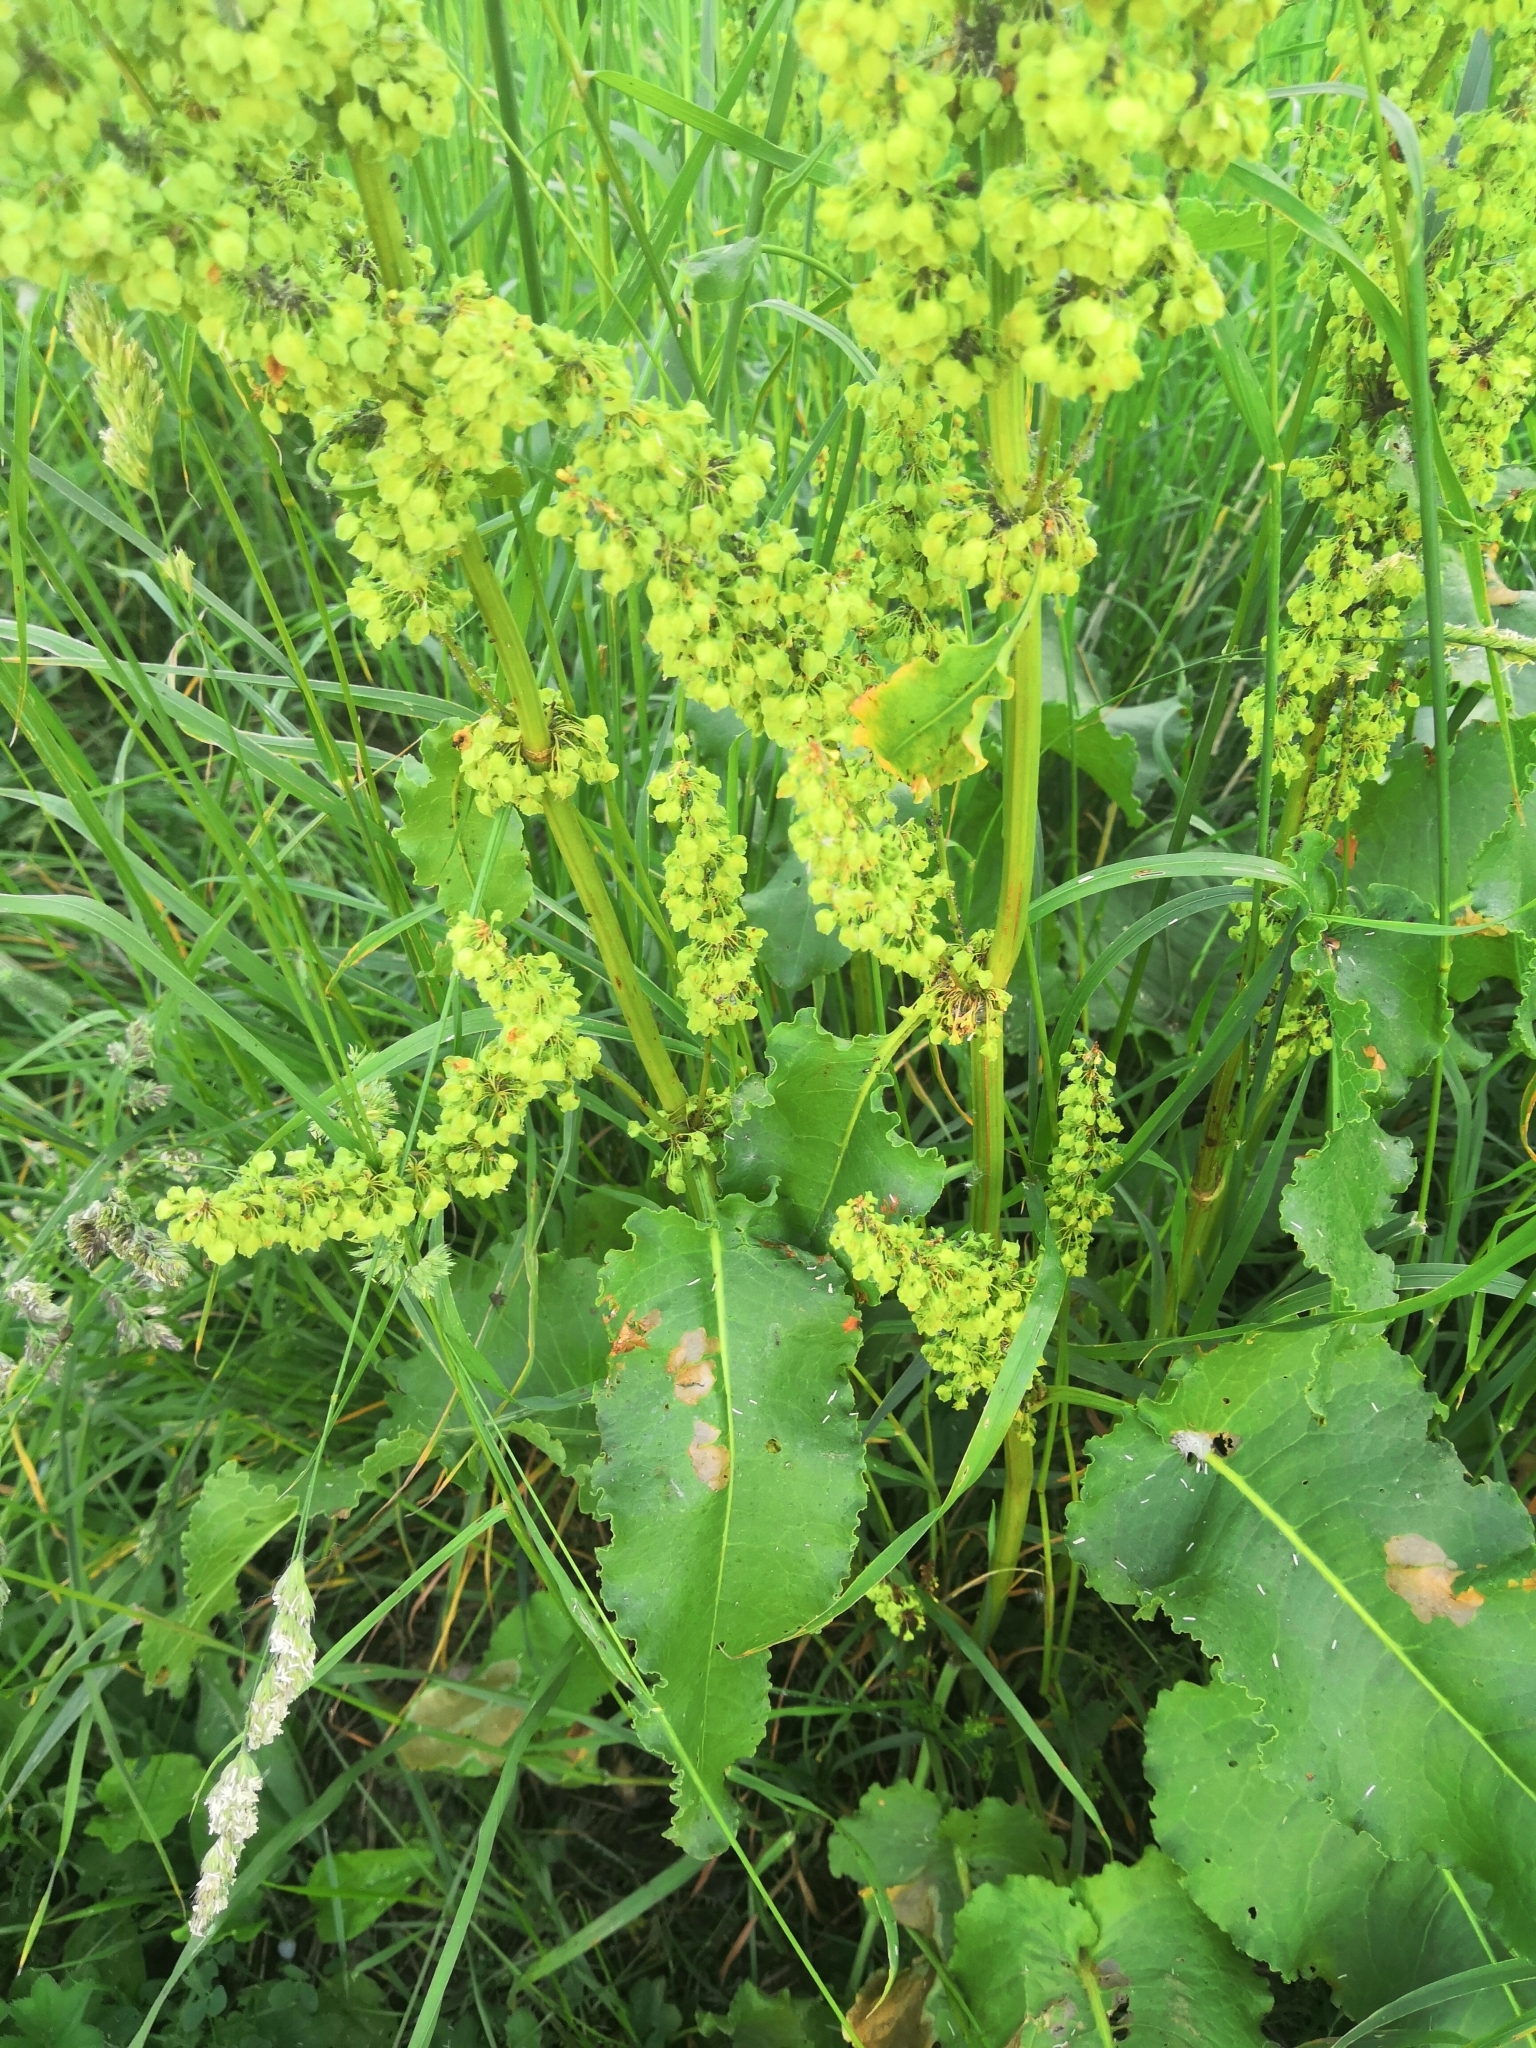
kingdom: Plantae
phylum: Tracheophyta
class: Magnoliopsida
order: Caryophyllales
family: Polygonaceae
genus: Rumex
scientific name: Rumex confertus
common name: Russian dock
